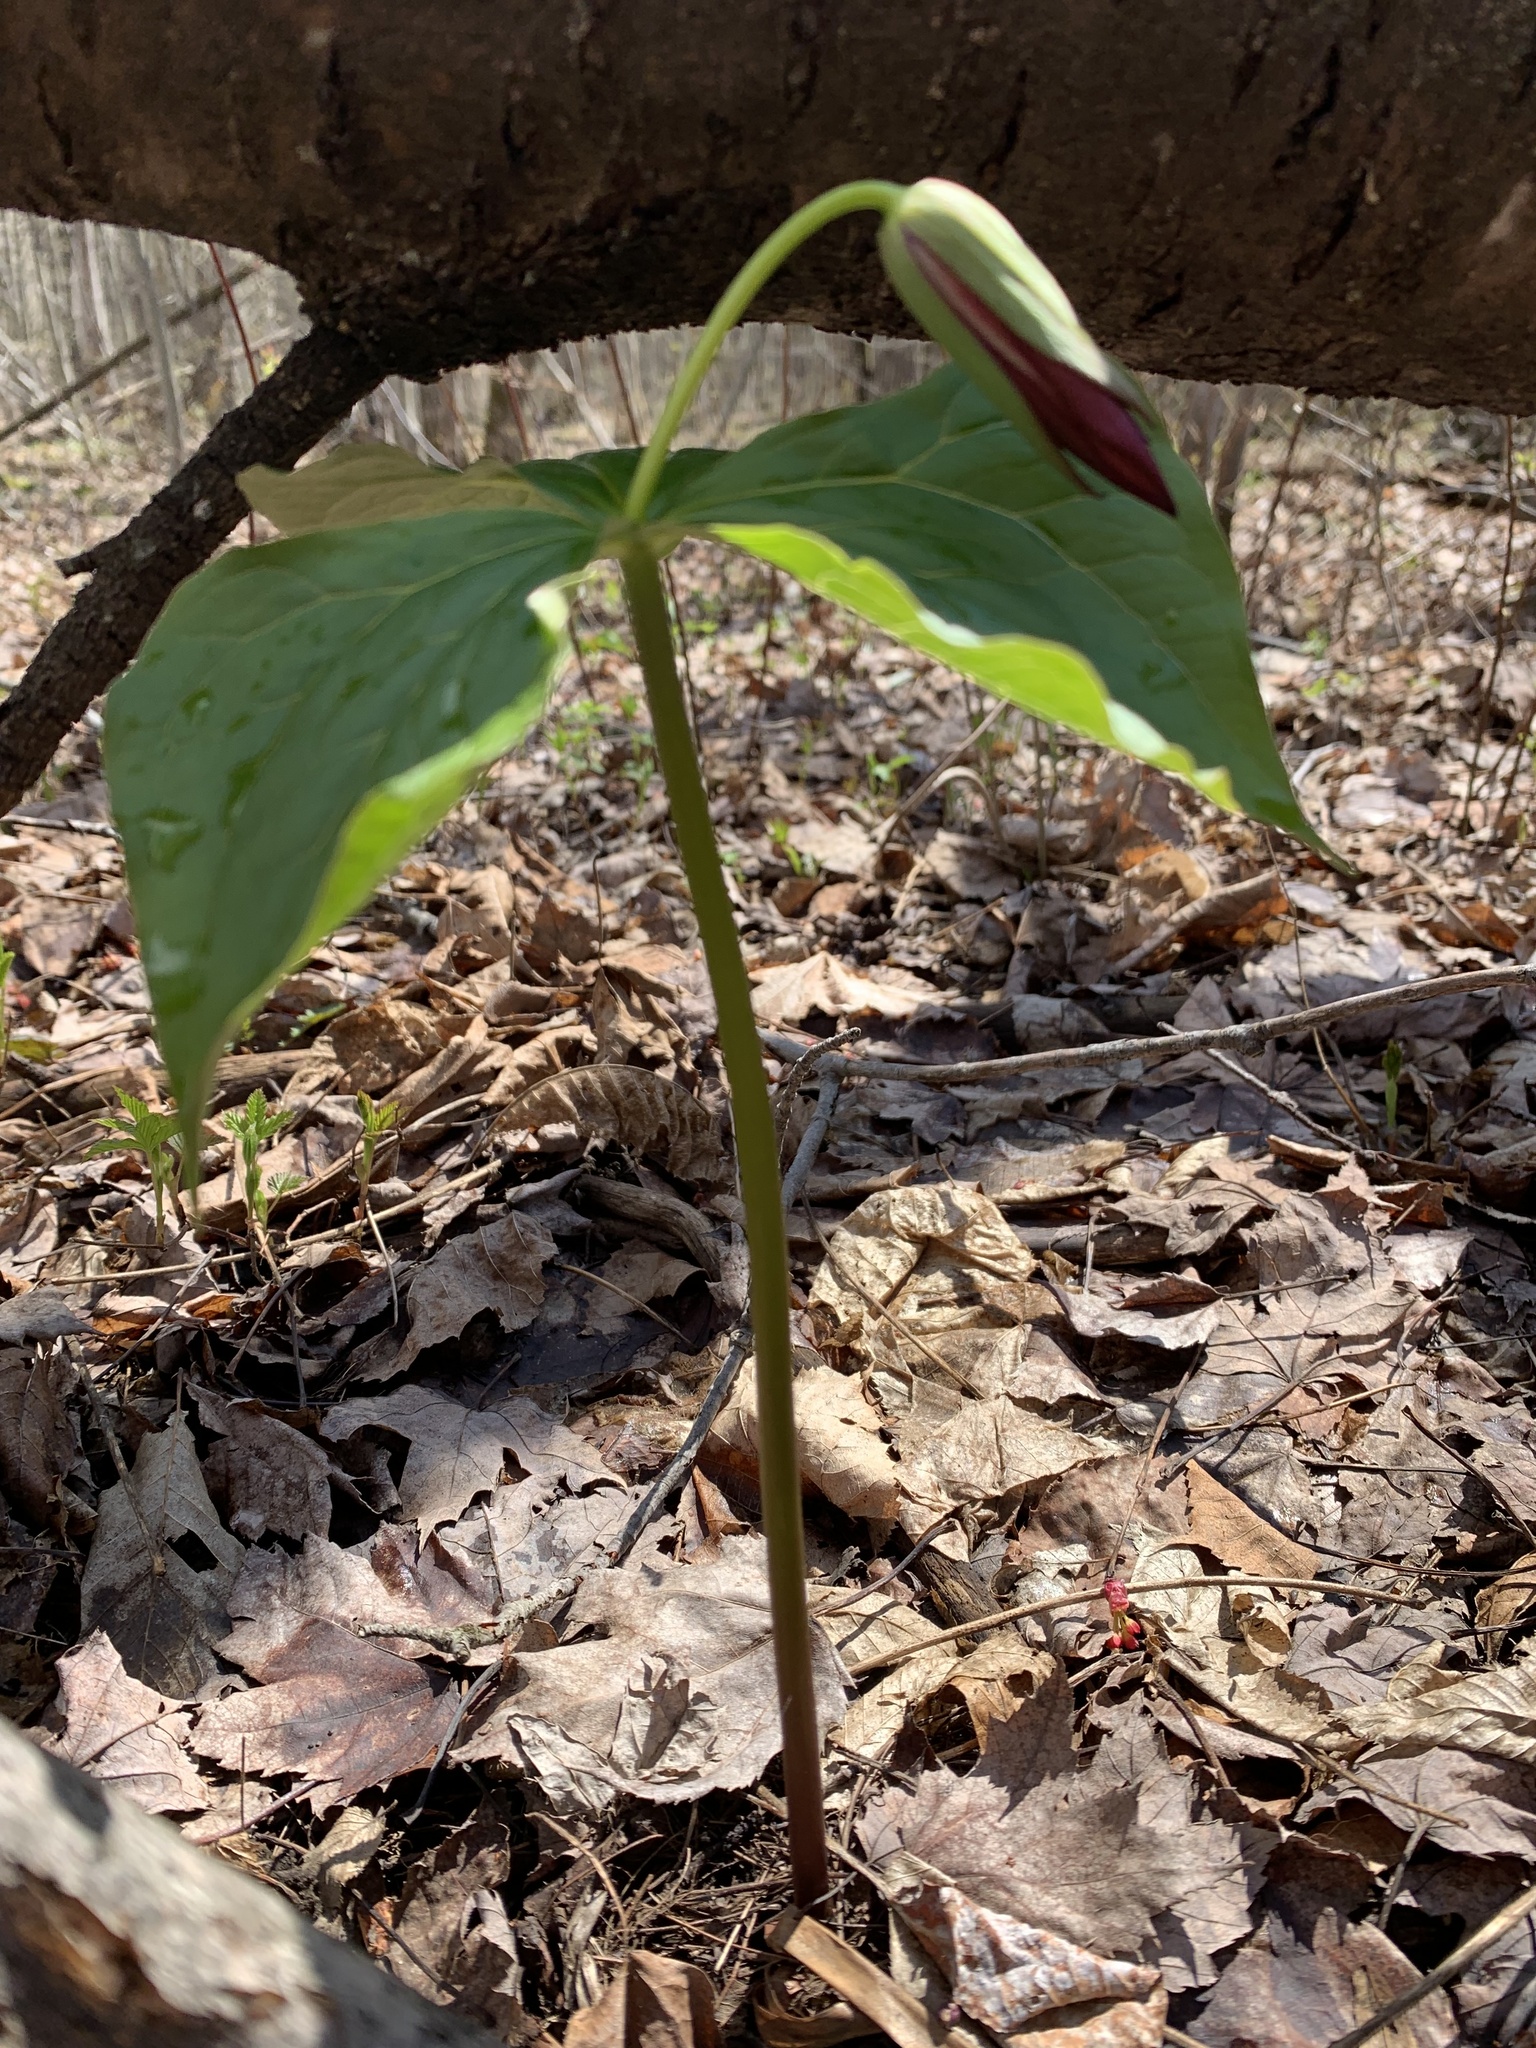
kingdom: Plantae
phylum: Tracheophyta
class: Liliopsida
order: Liliales
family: Melanthiaceae
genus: Trillium
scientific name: Trillium erectum
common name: Purple trillium
